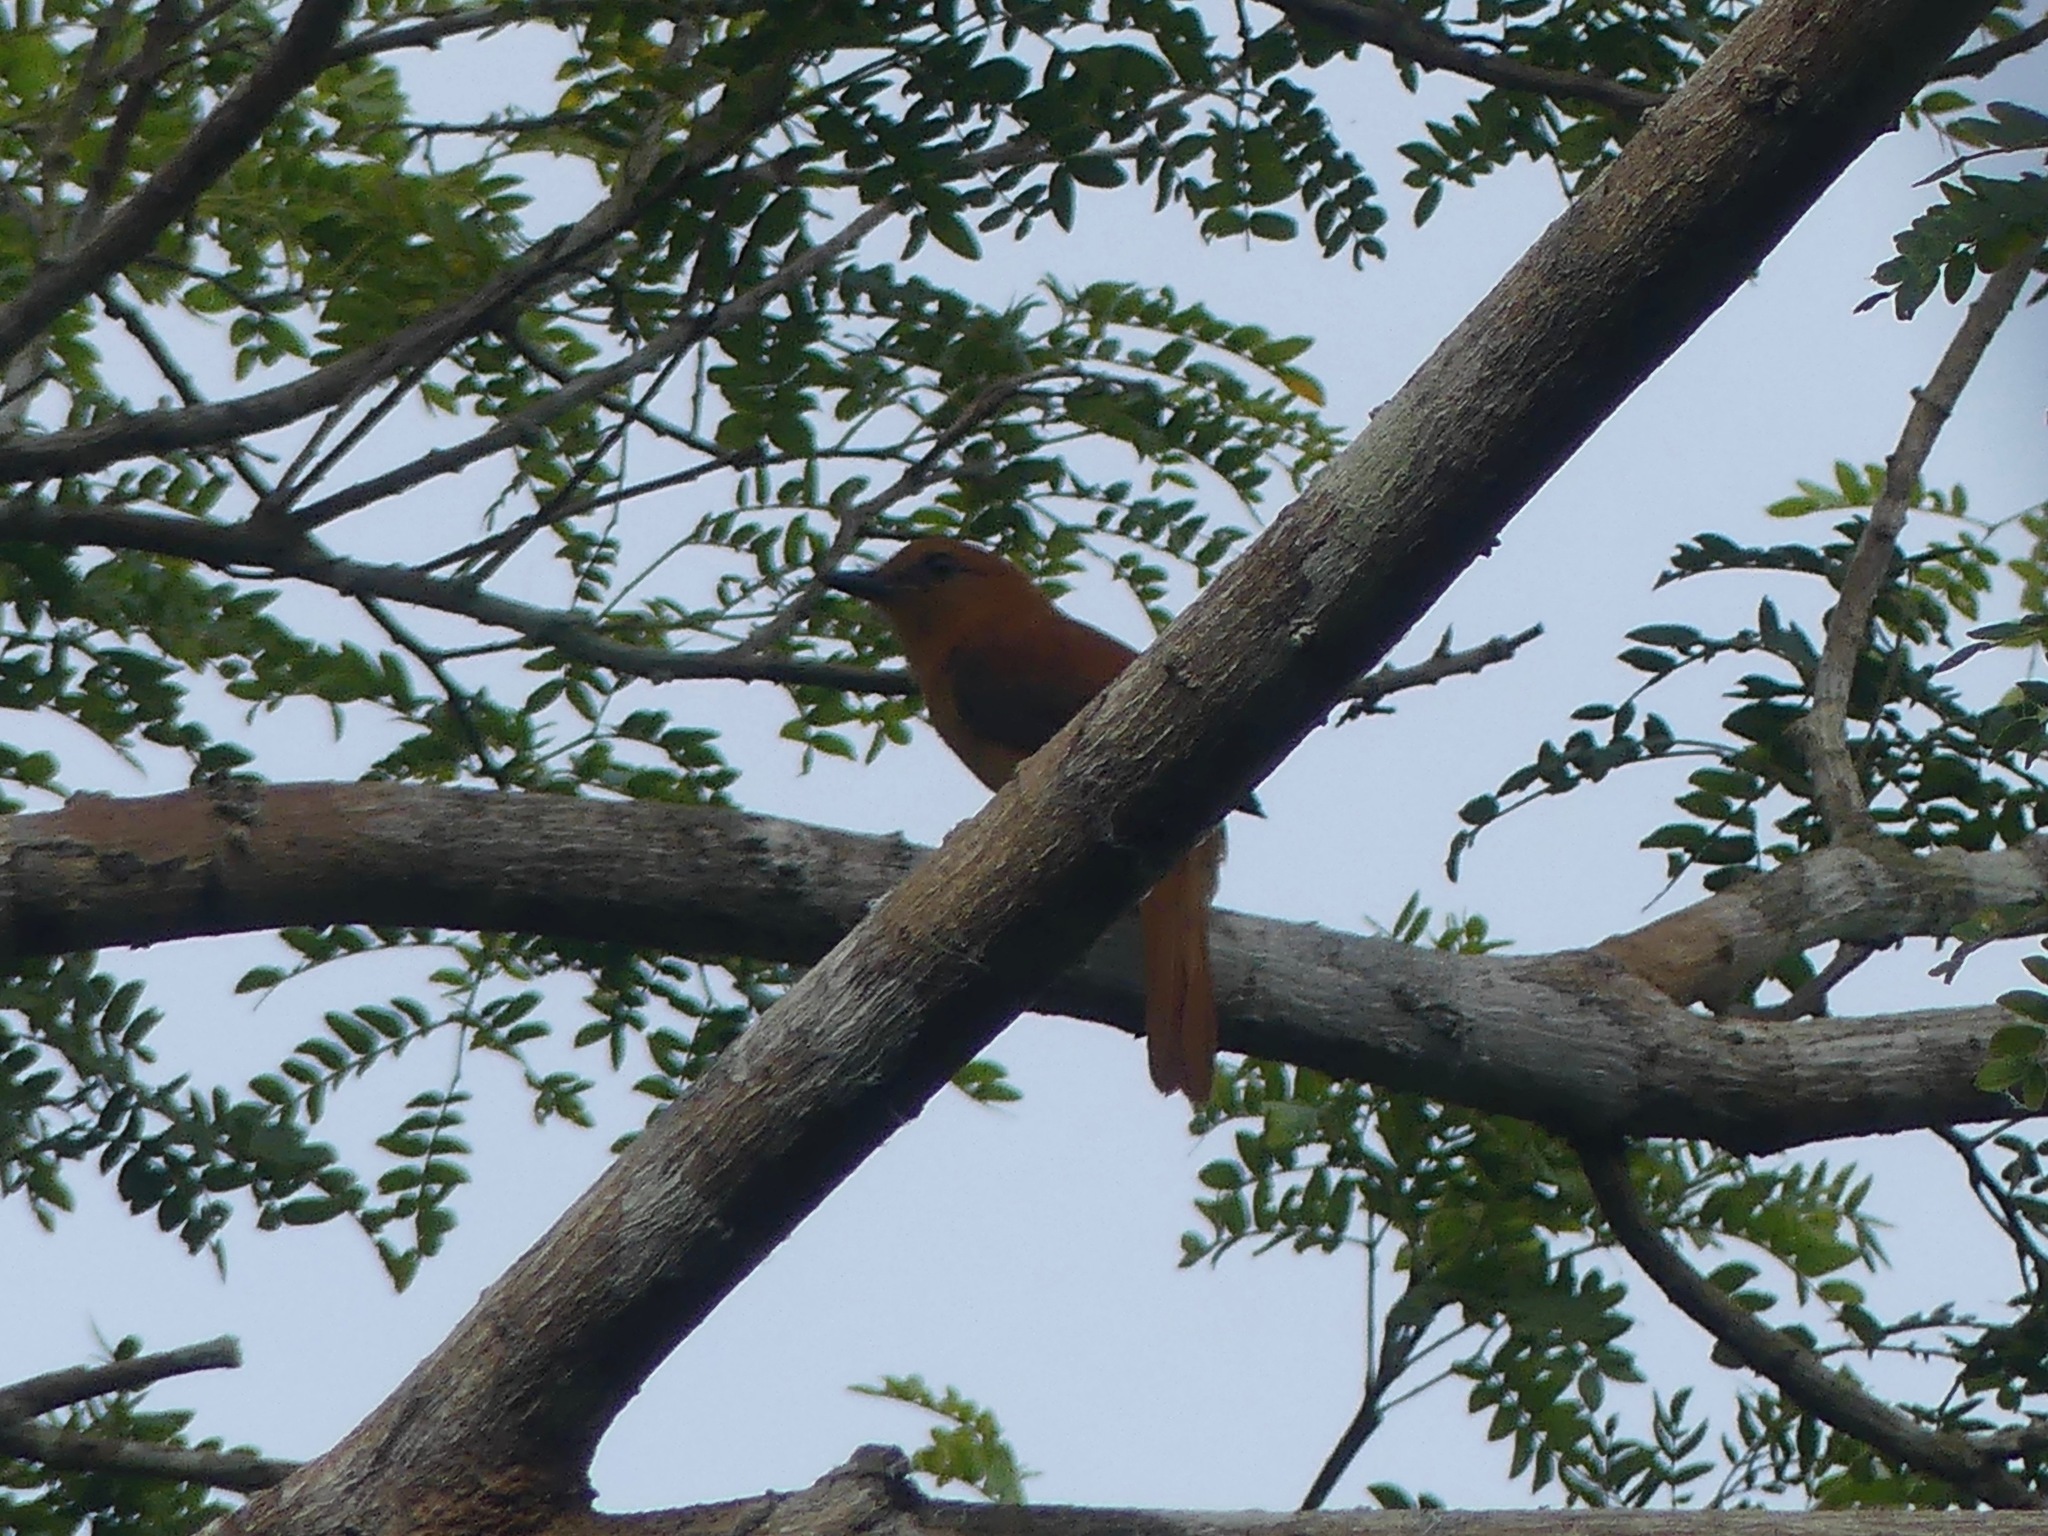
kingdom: Animalia
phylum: Chordata
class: Aves
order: Passeriformes
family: Tyrannidae
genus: Attila
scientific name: Attila cinnamomeus
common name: Cinnamon attila
